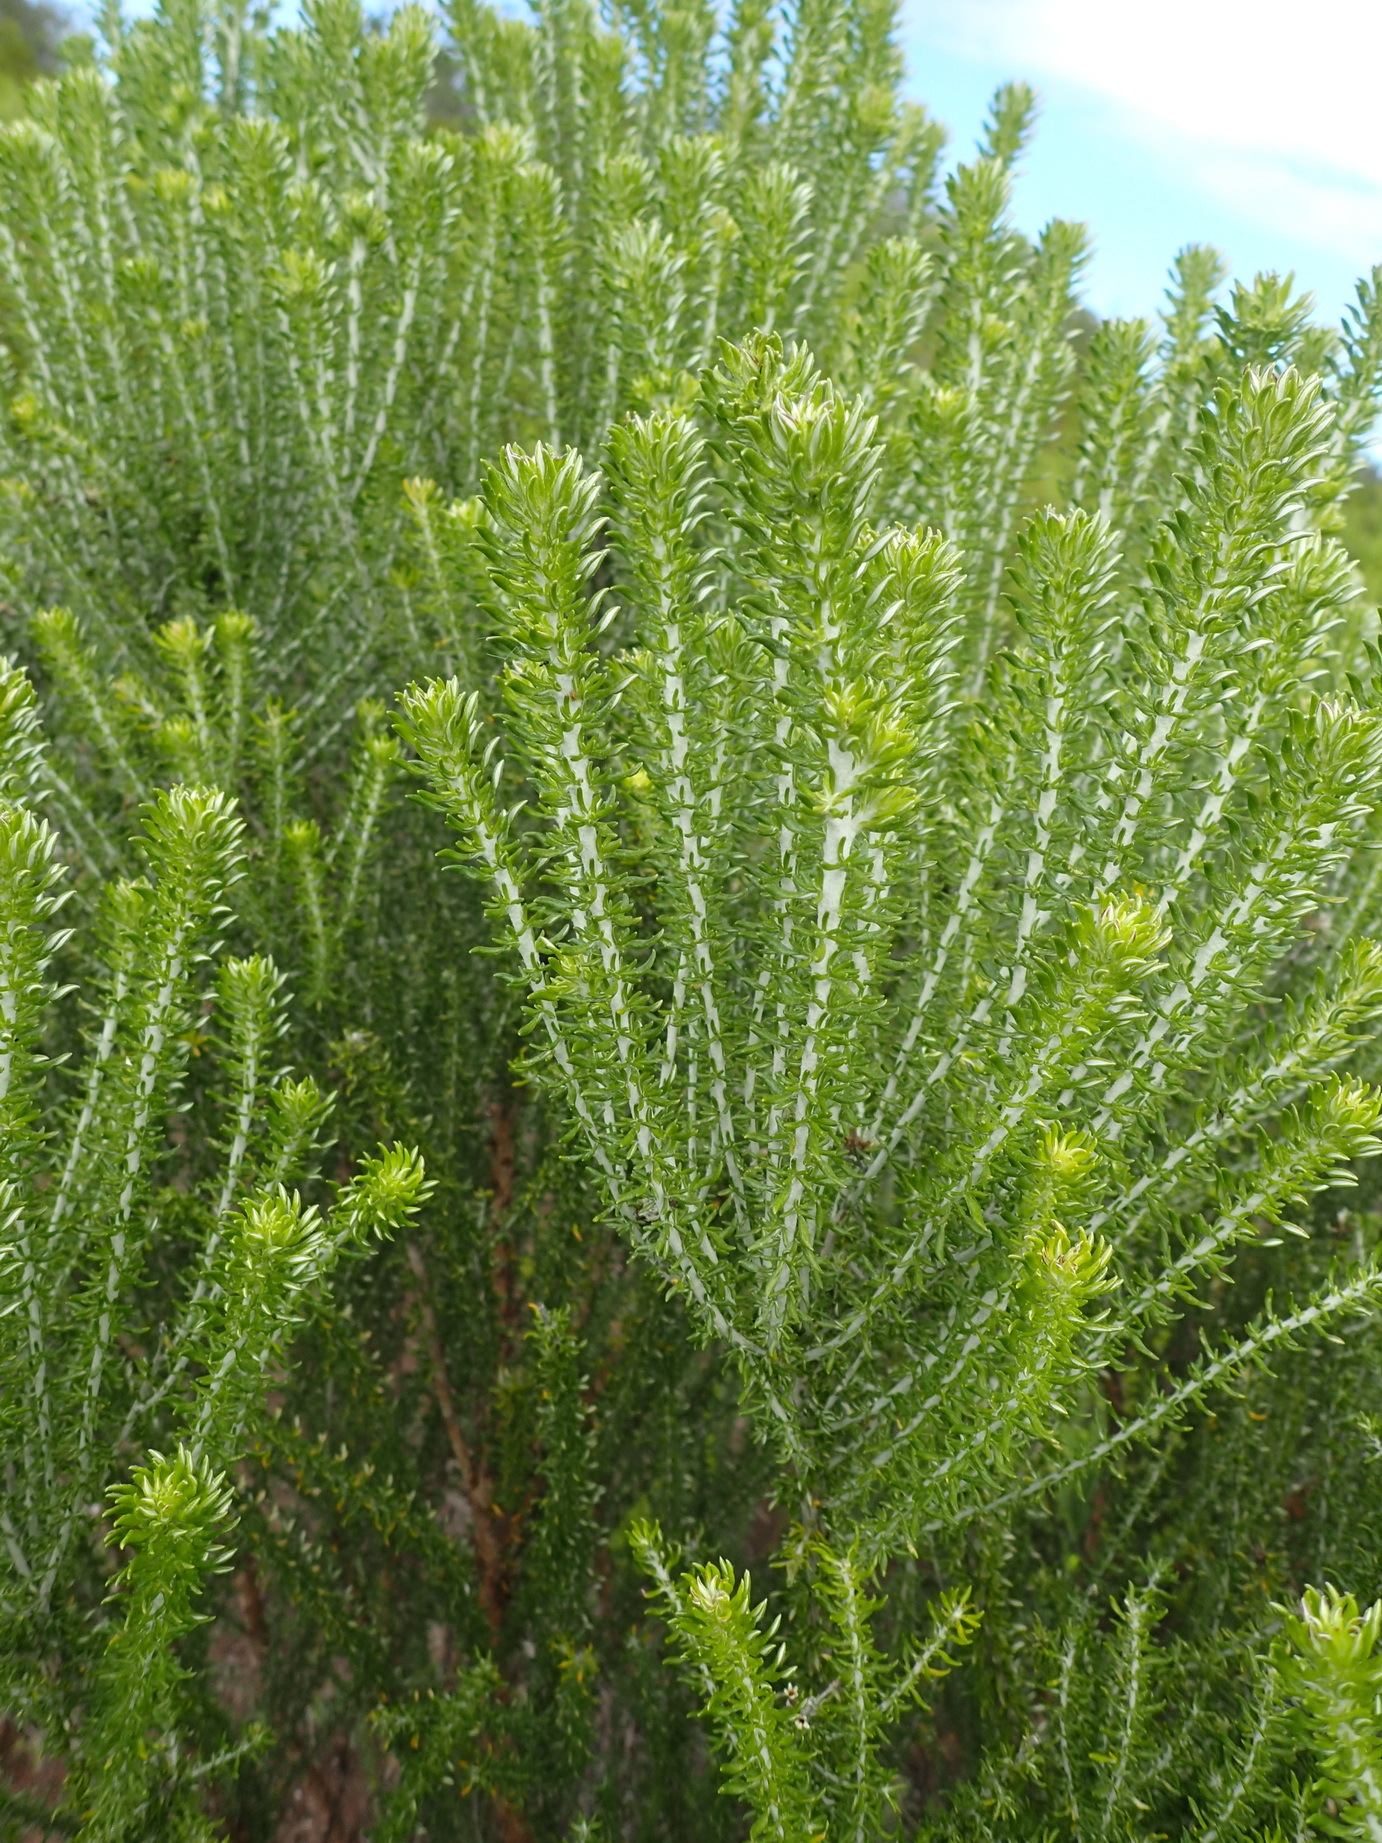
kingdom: Plantae
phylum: Tracheophyta
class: Magnoliopsida
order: Asterales
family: Asteraceae
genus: Metalasia
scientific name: Metalasia muricata
